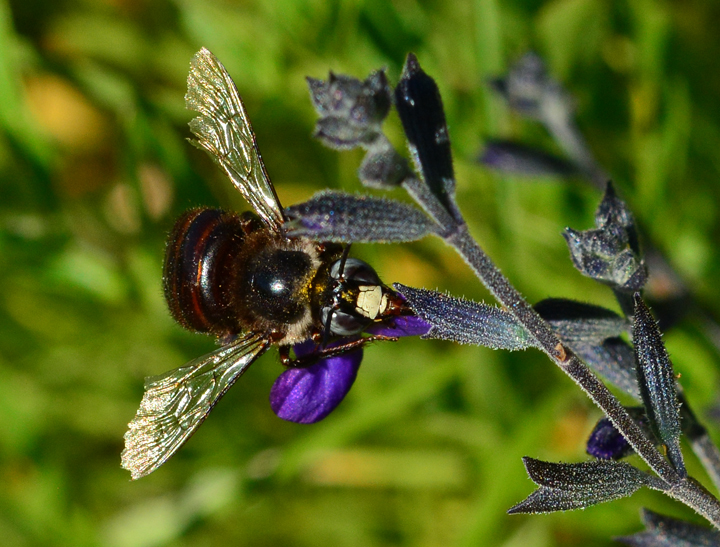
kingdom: Animalia
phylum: Arthropoda
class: Insecta
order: Hymenoptera
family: Apidae
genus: Xylocopa
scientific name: Xylocopa tabaniformis
